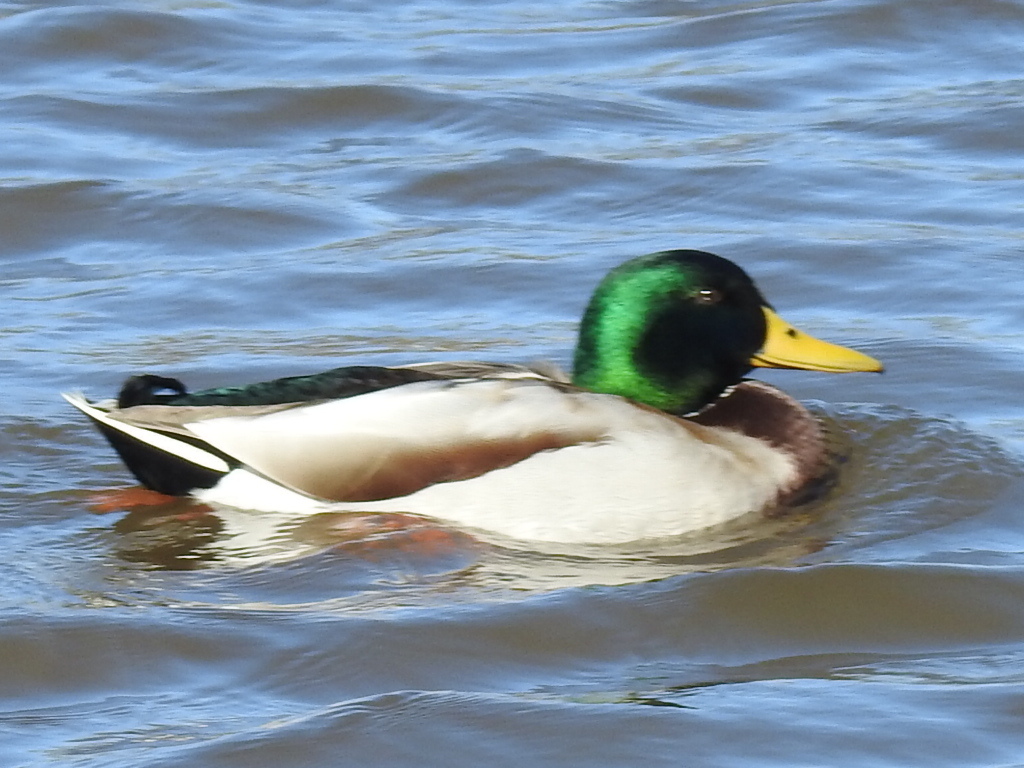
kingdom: Animalia
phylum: Chordata
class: Aves
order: Anseriformes
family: Anatidae
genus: Anas
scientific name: Anas platyrhynchos
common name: Mallard
